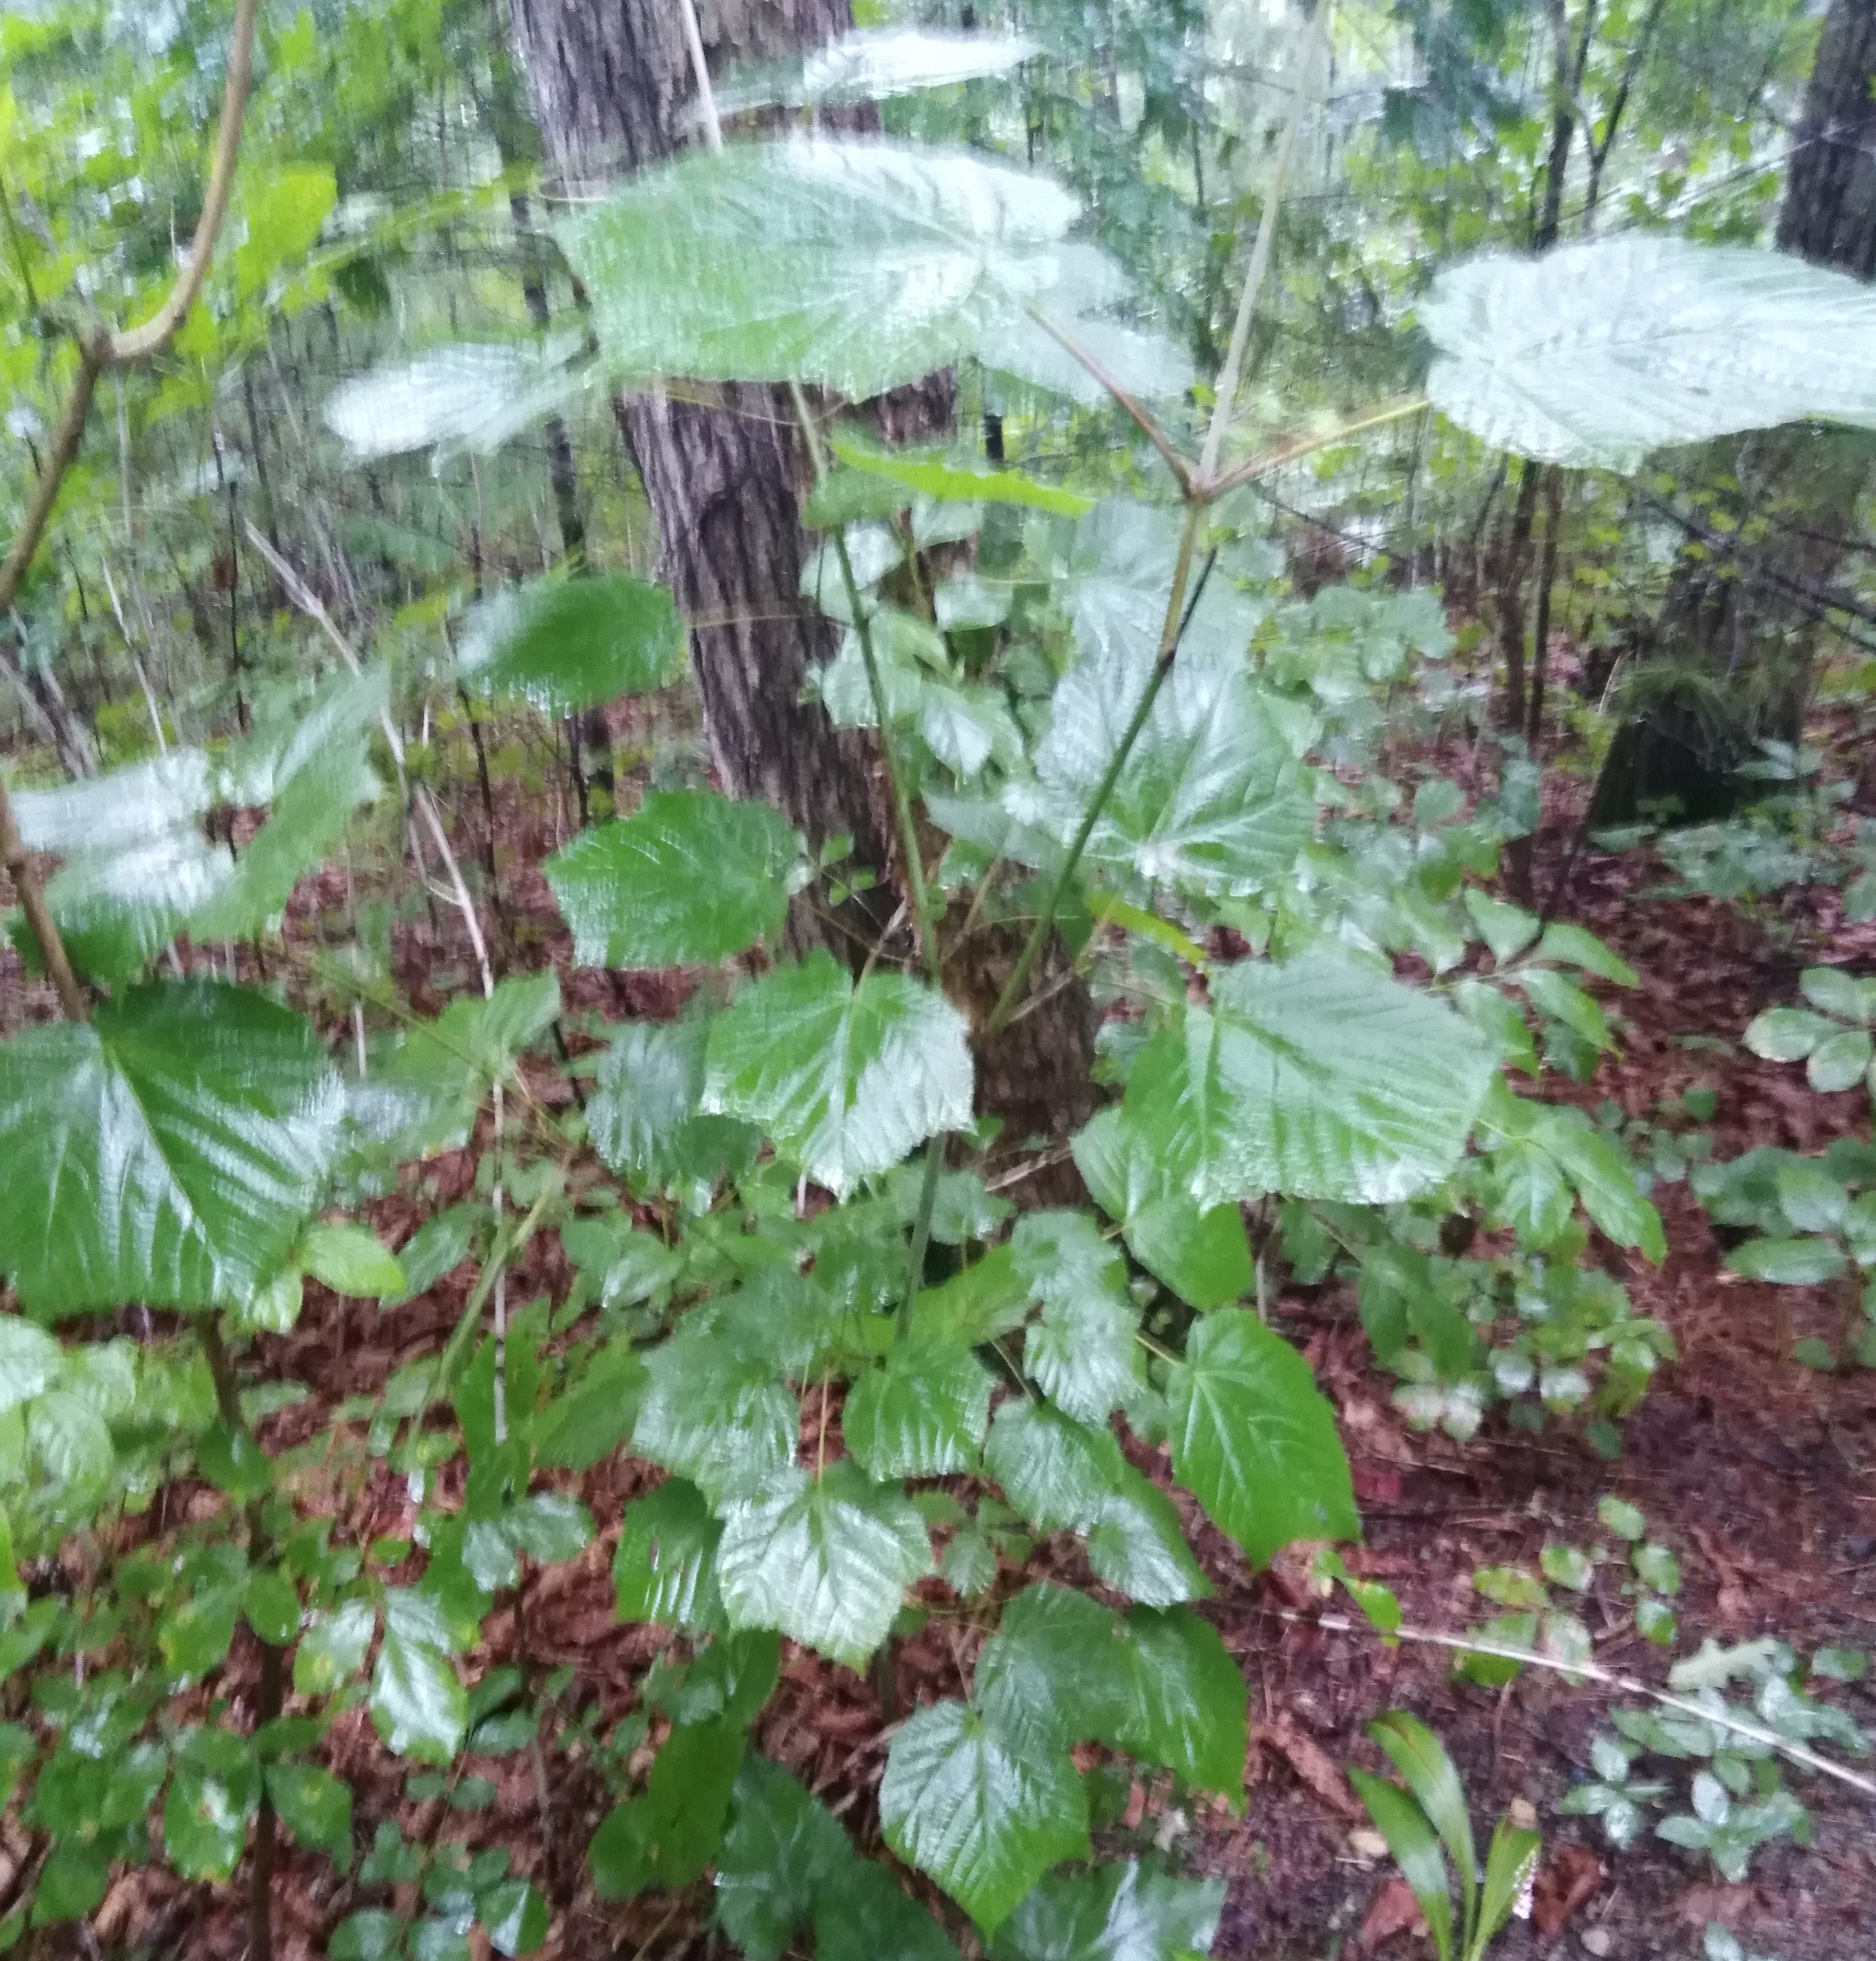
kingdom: Plantae
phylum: Tracheophyta
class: Magnoliopsida
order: Sapindales
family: Sapindaceae
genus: Acer
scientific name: Acer tegmentosum
